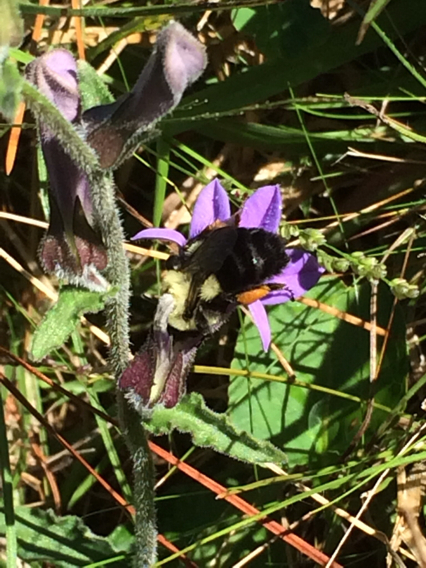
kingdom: Animalia
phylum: Arthropoda
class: Insecta
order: Hymenoptera
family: Apidae
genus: Bombus
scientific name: Bombus impatiens
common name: Common eastern bumble bee
